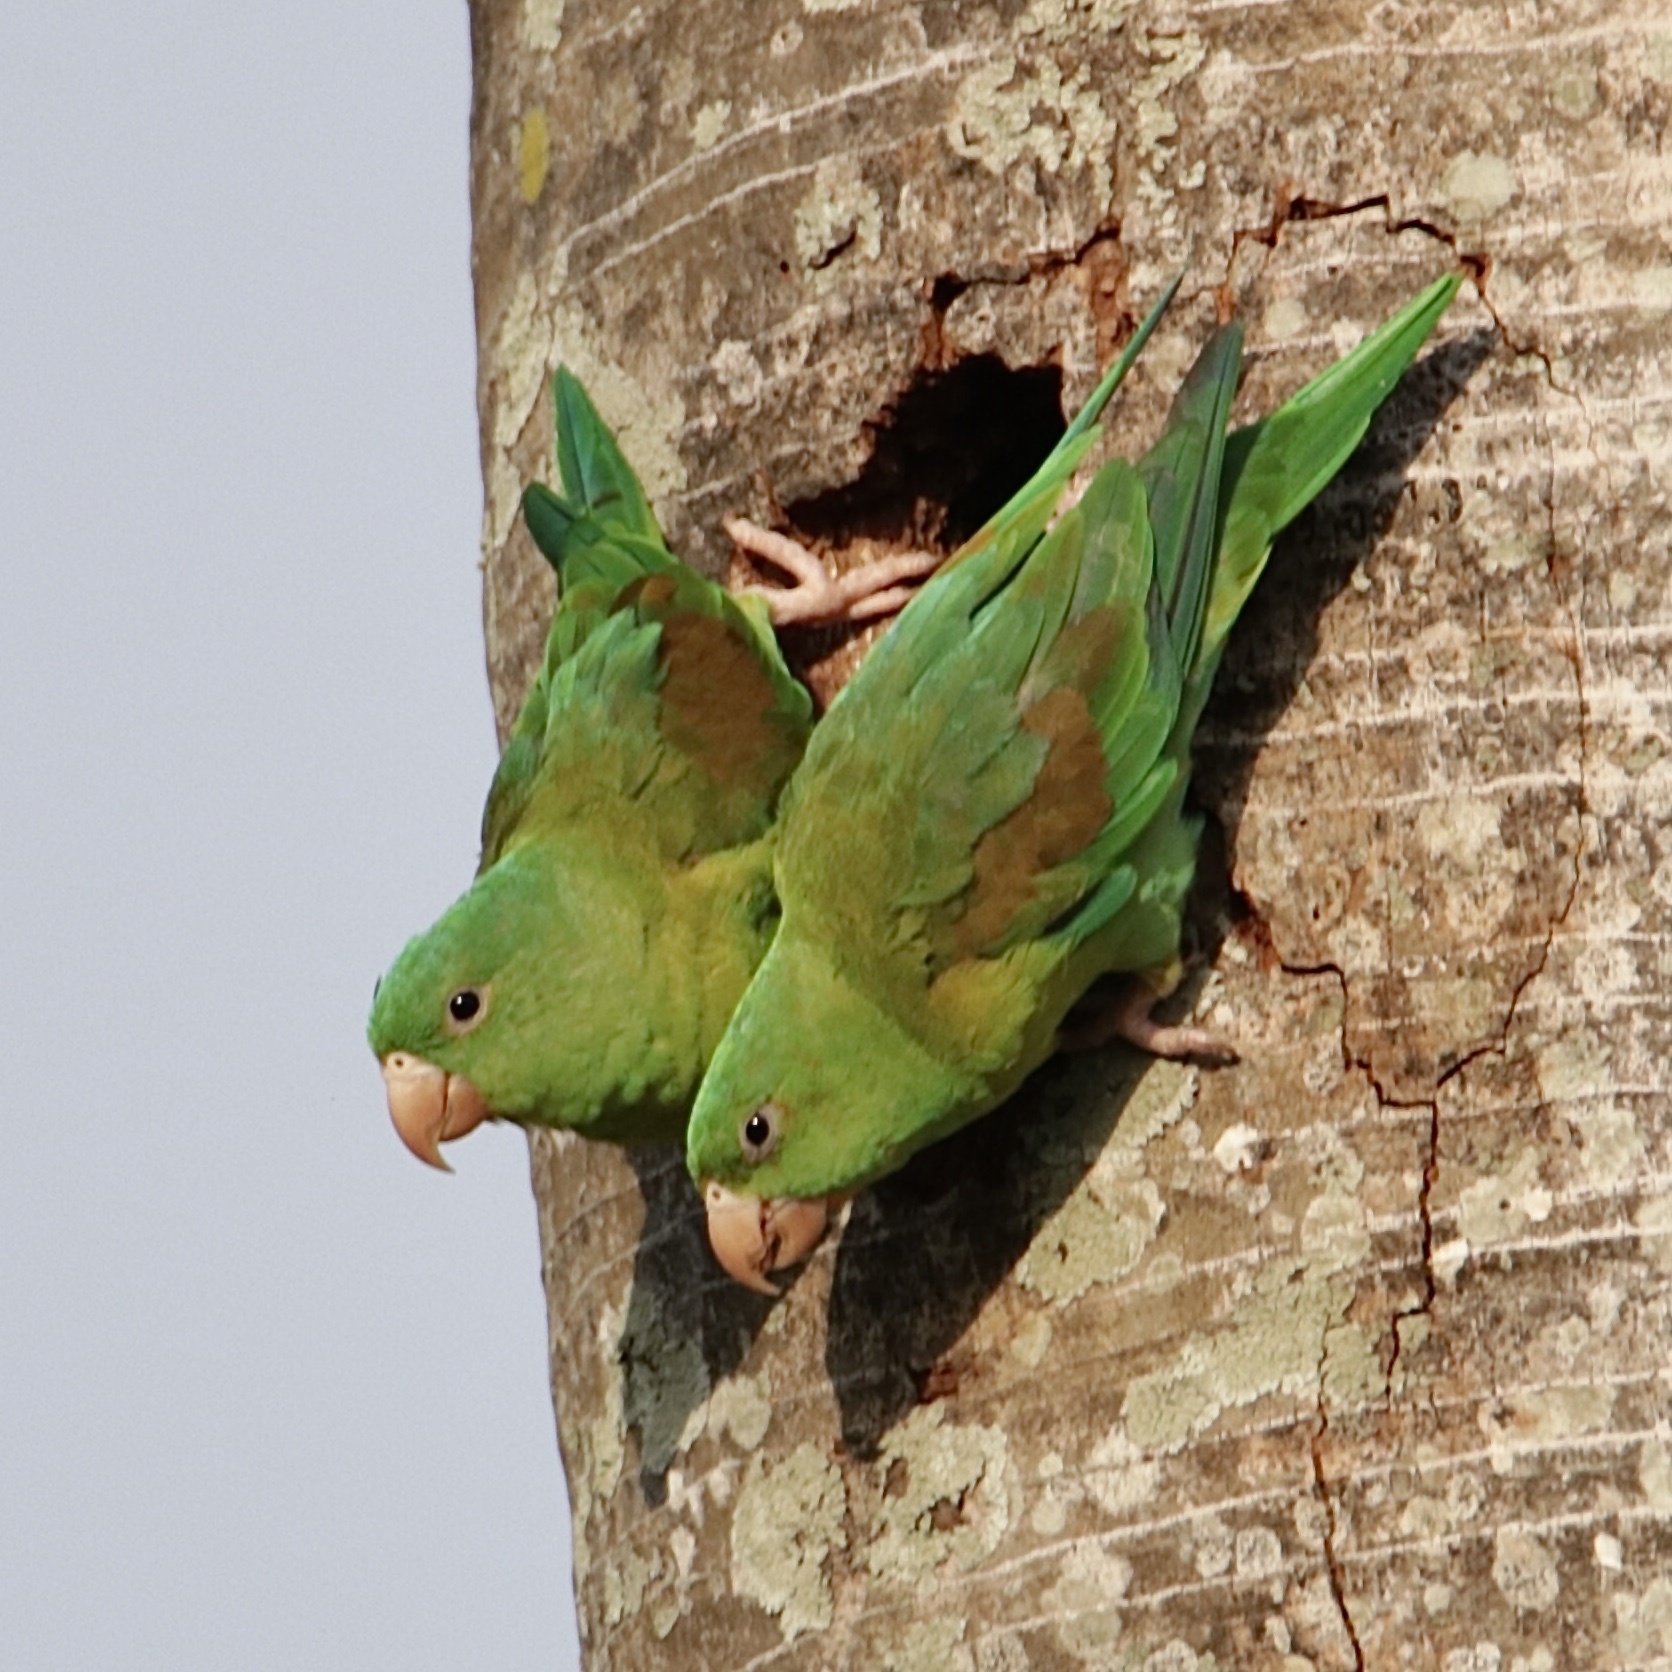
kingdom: Animalia
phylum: Chordata
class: Aves
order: Psittaciformes
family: Psittacidae
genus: Brotogeris
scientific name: Brotogeris jugularis
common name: Orange-chinned parakeet
